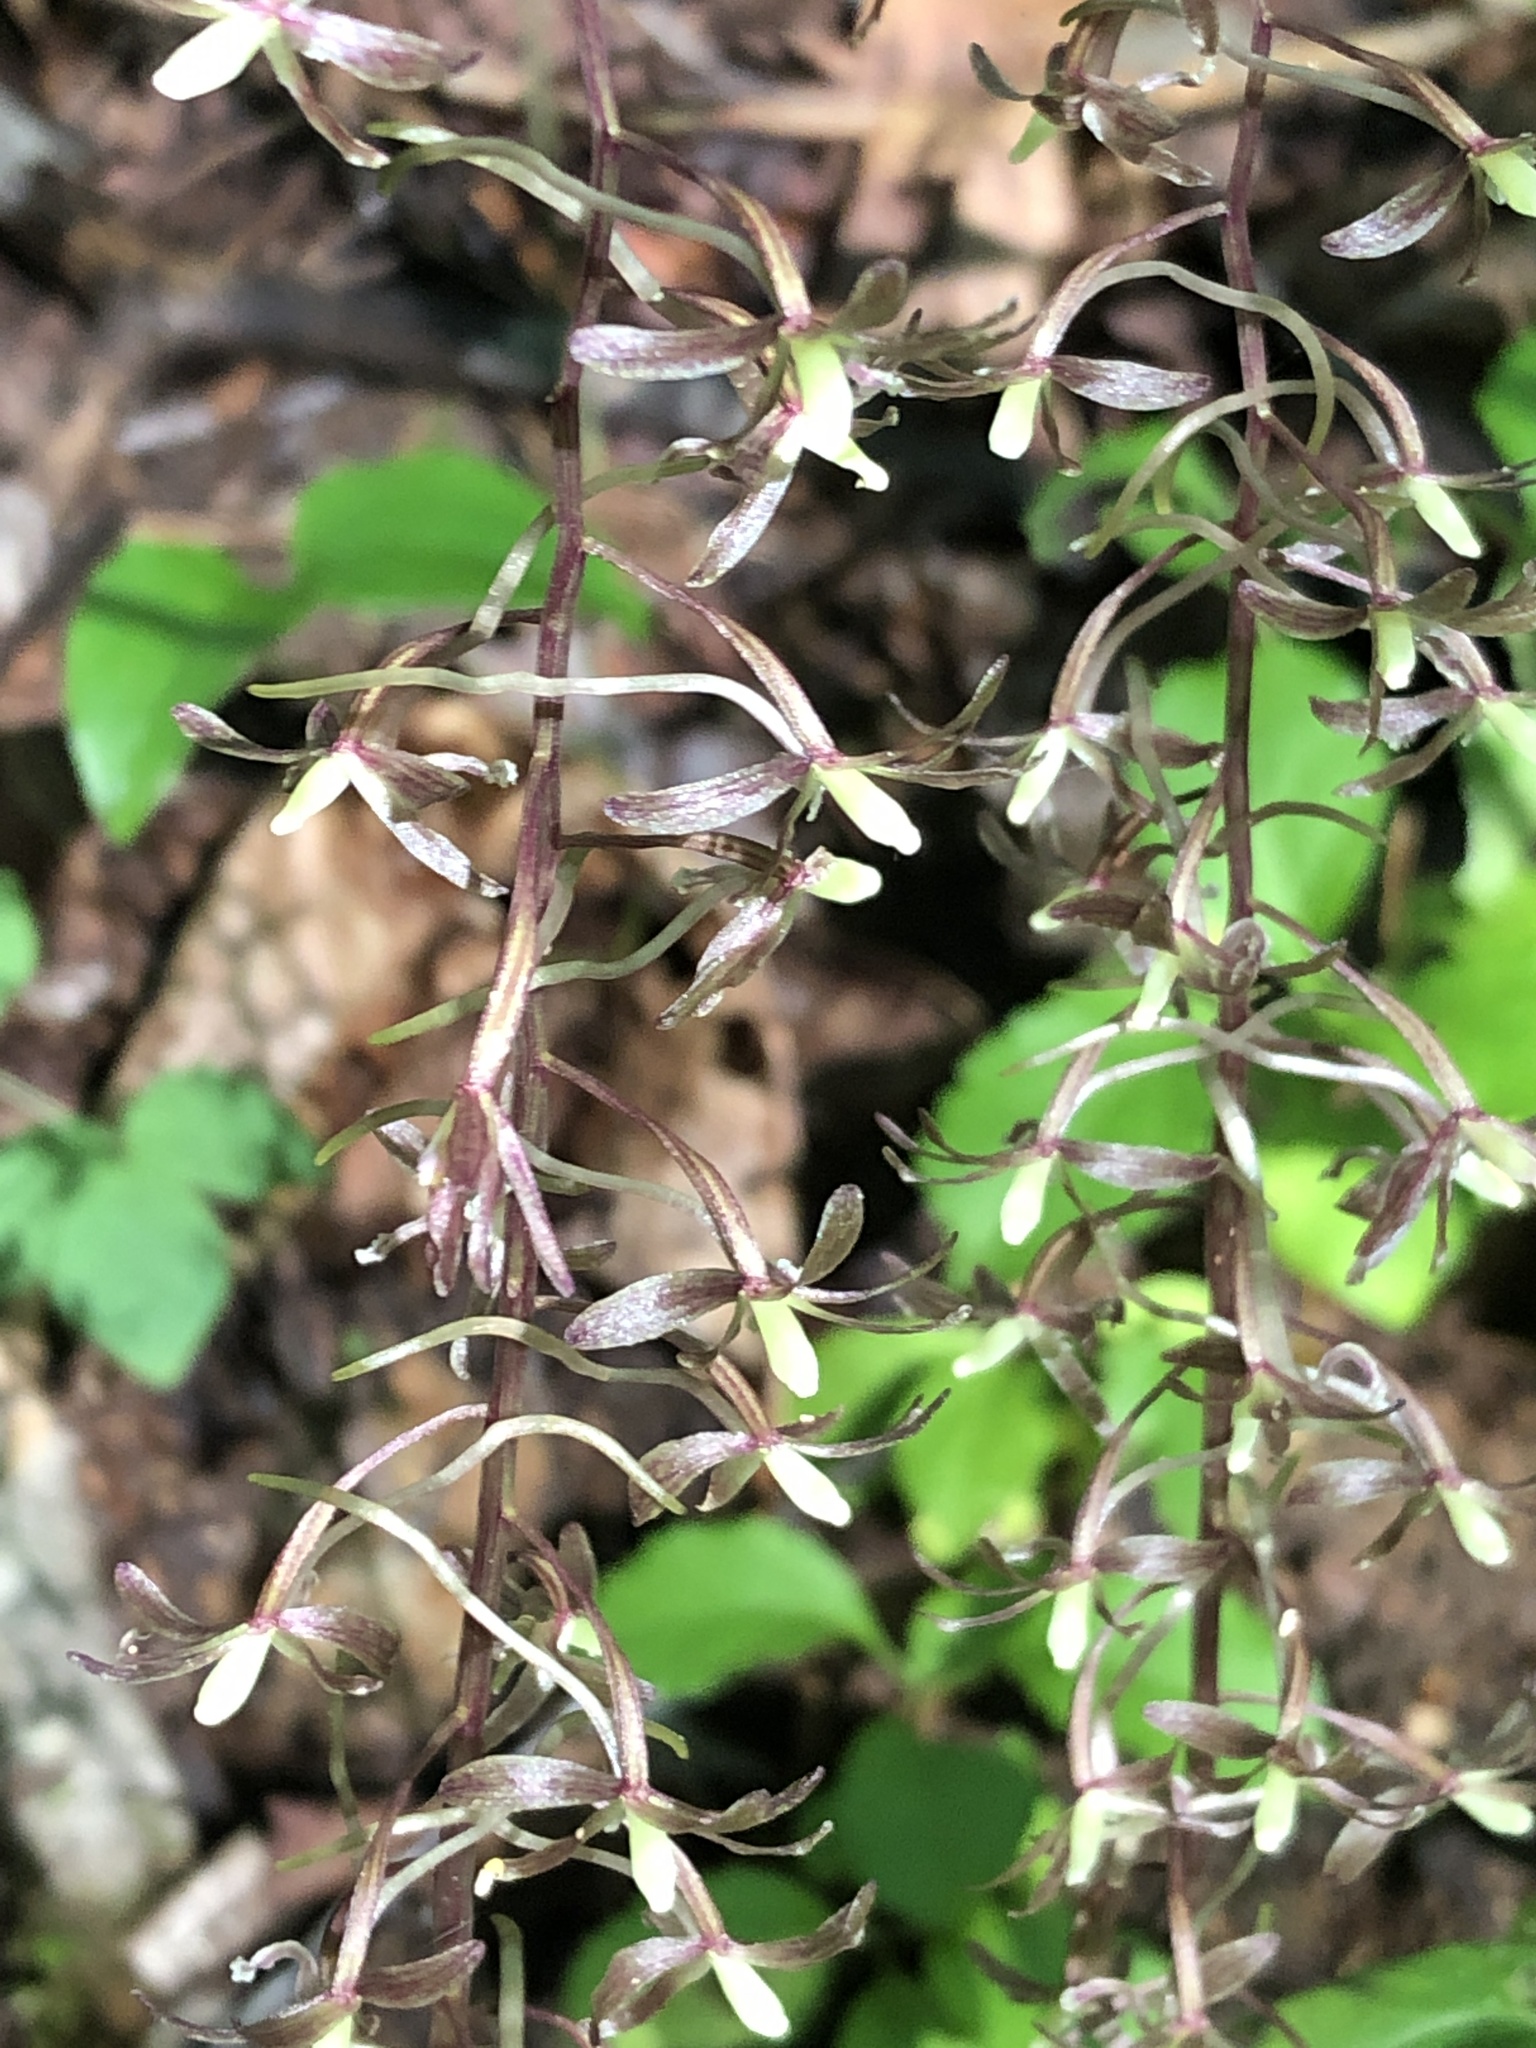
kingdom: Plantae
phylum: Tracheophyta
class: Liliopsida
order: Asparagales
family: Orchidaceae
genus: Tipularia
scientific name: Tipularia discolor
